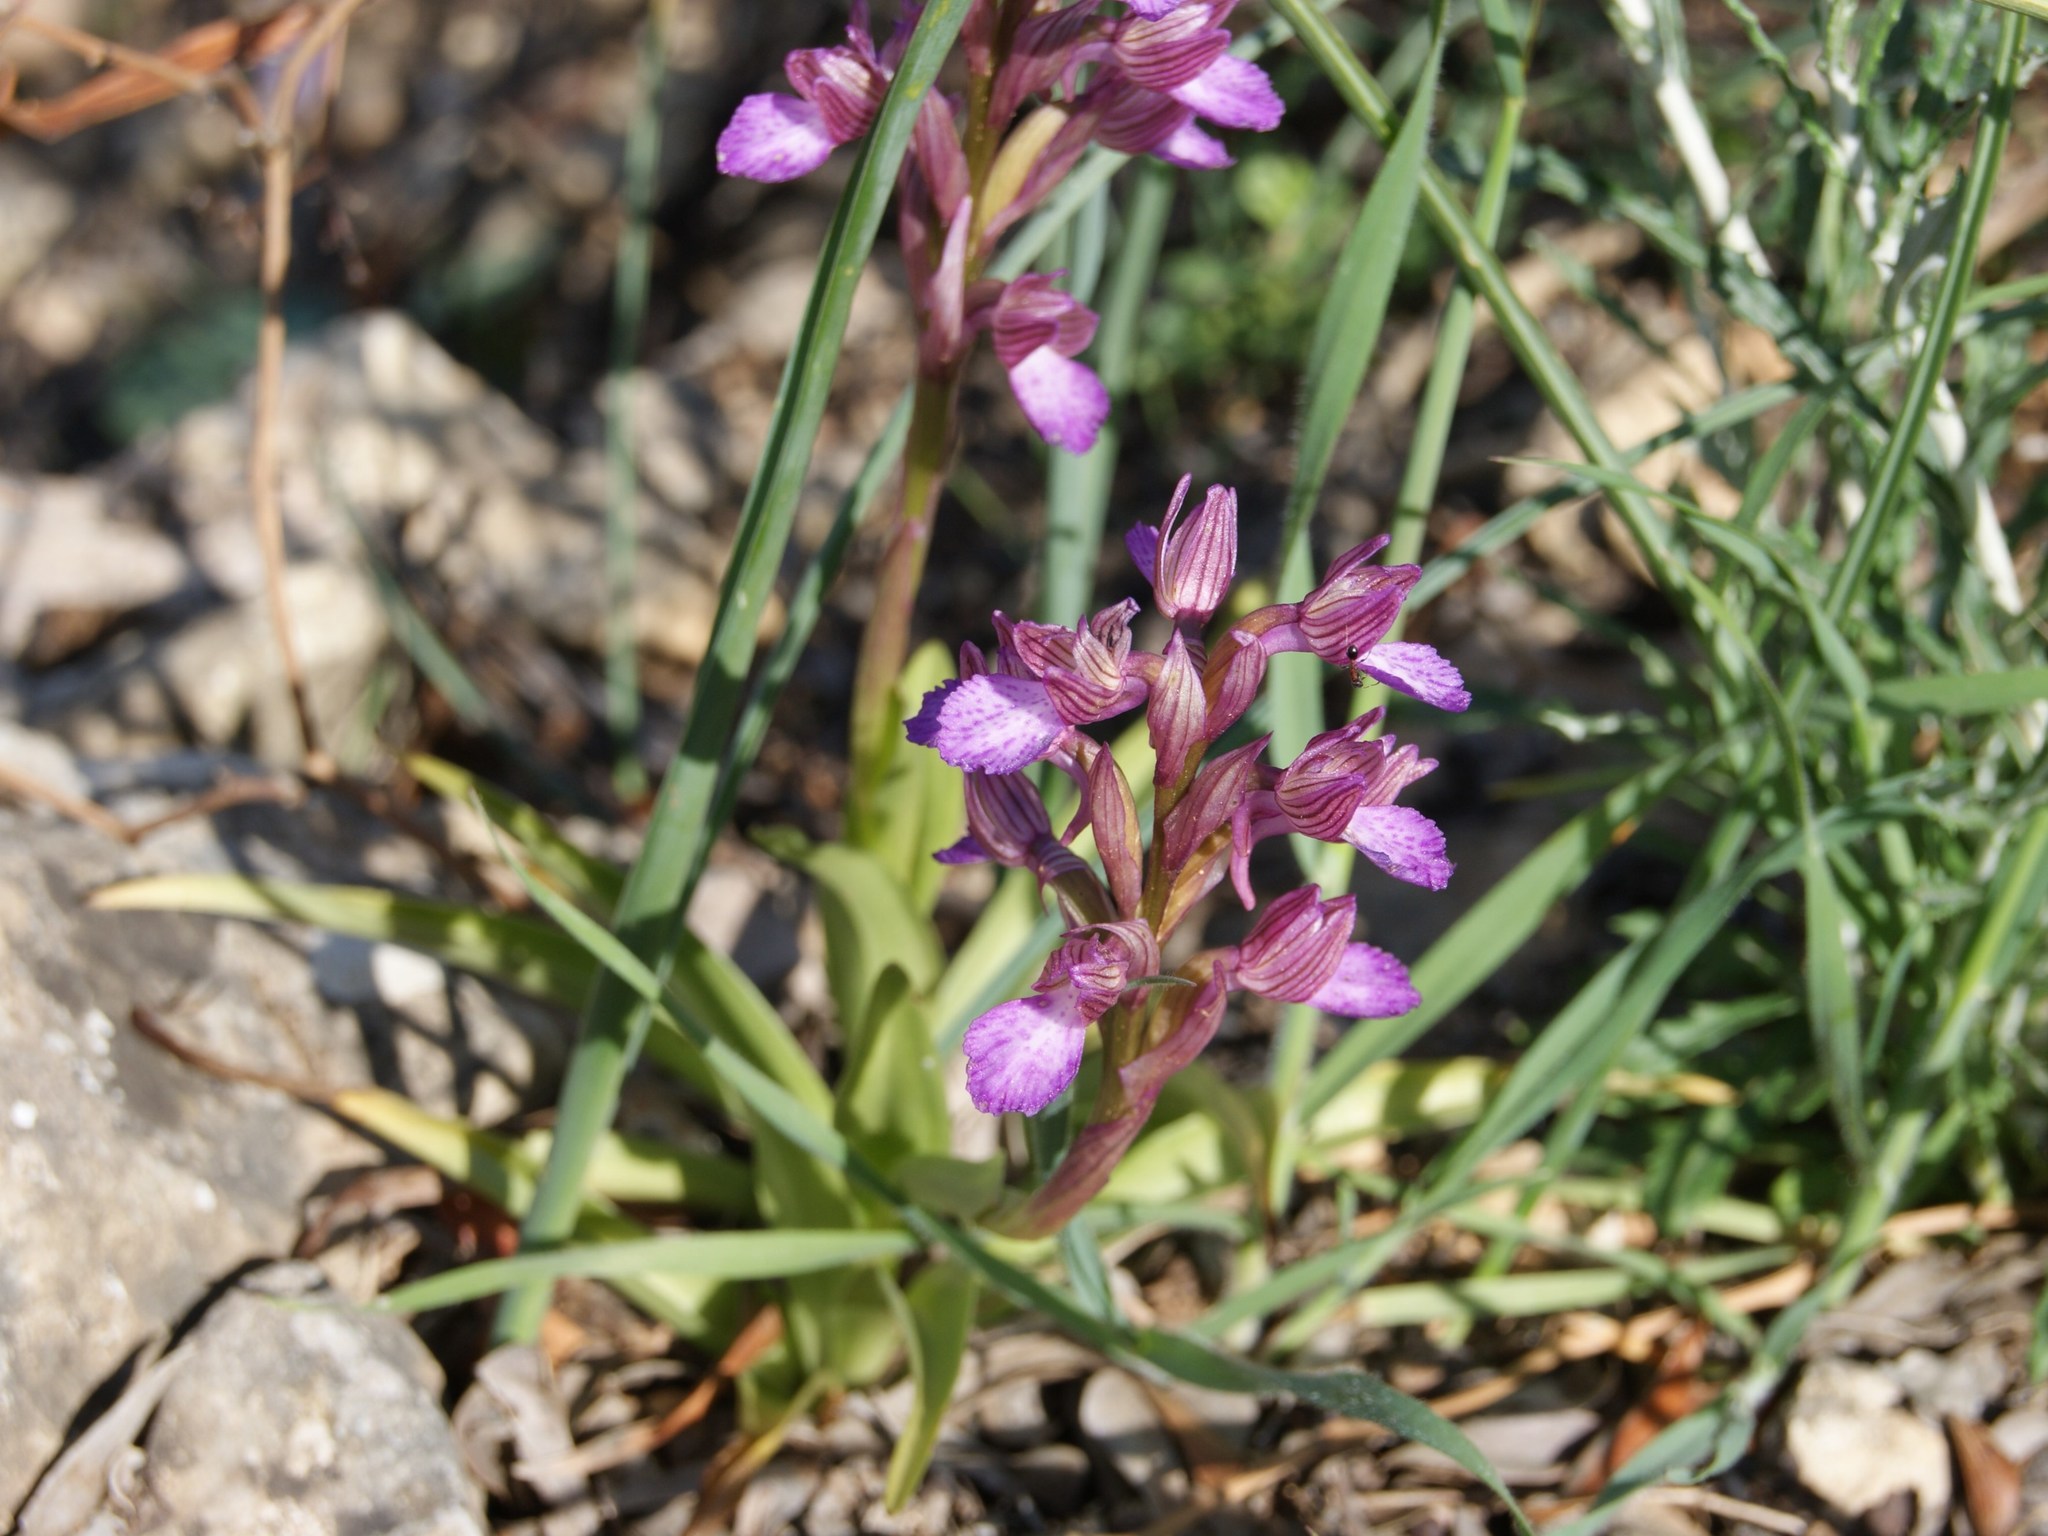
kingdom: Plantae
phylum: Tracheophyta
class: Liliopsida
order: Asparagales
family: Orchidaceae
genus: Anacamptis
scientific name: Anacamptis papilionacea
